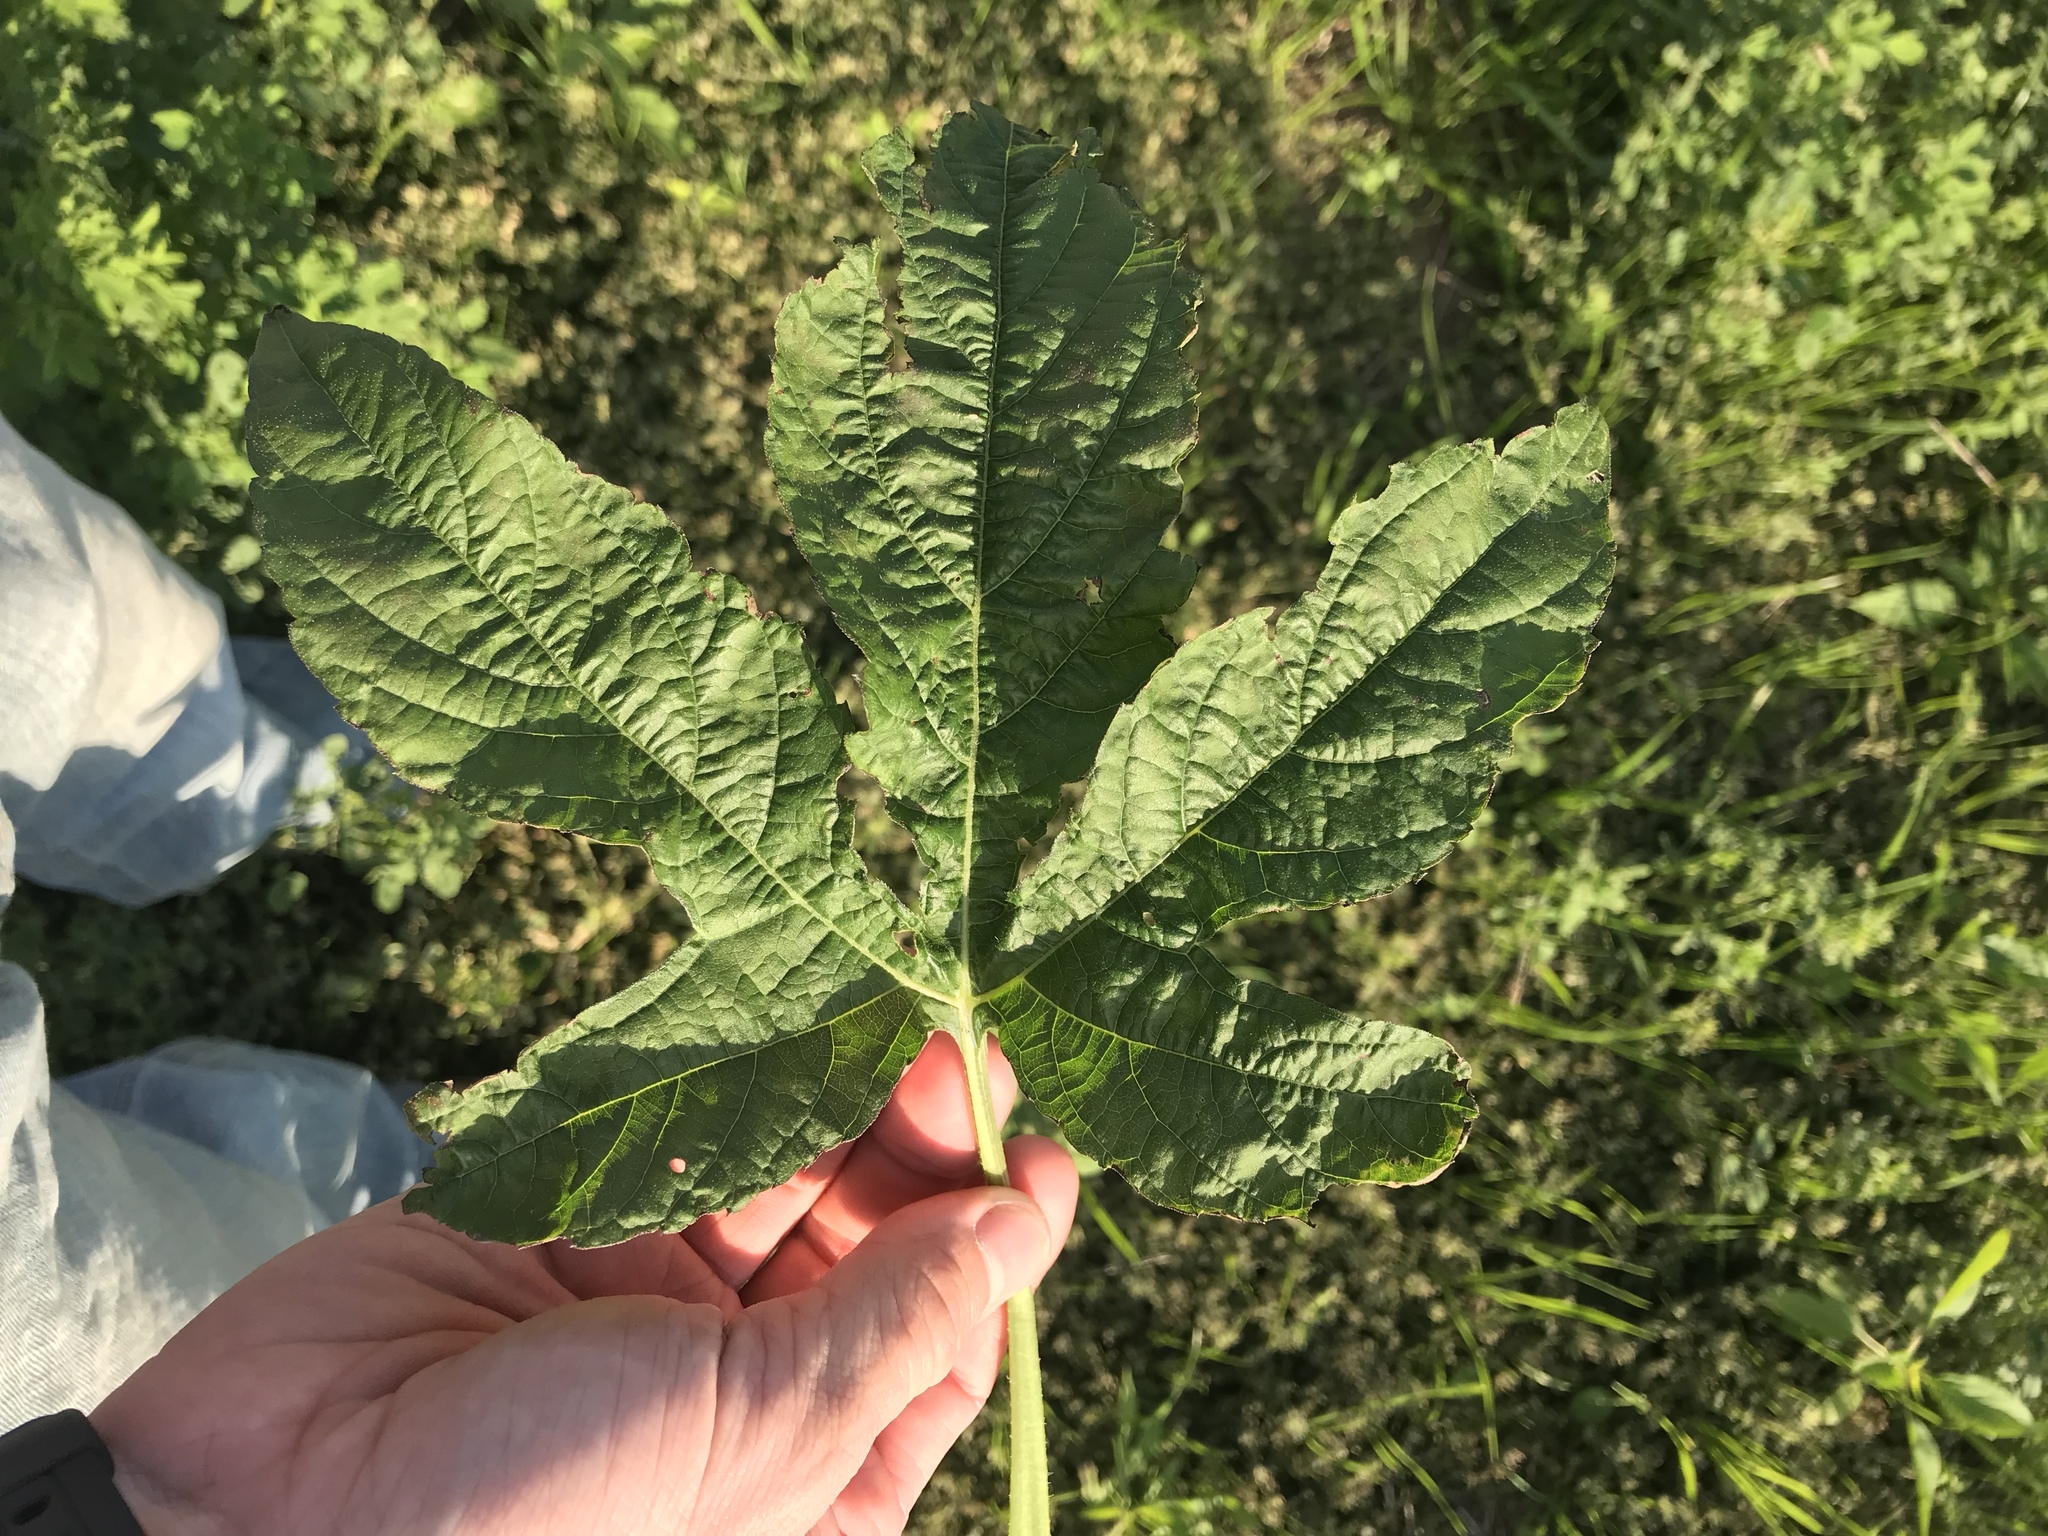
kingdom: Plantae
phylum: Tracheophyta
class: Magnoliopsida
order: Asterales
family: Asteraceae
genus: Ambrosia
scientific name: Ambrosia trifida
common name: Giant ragweed
